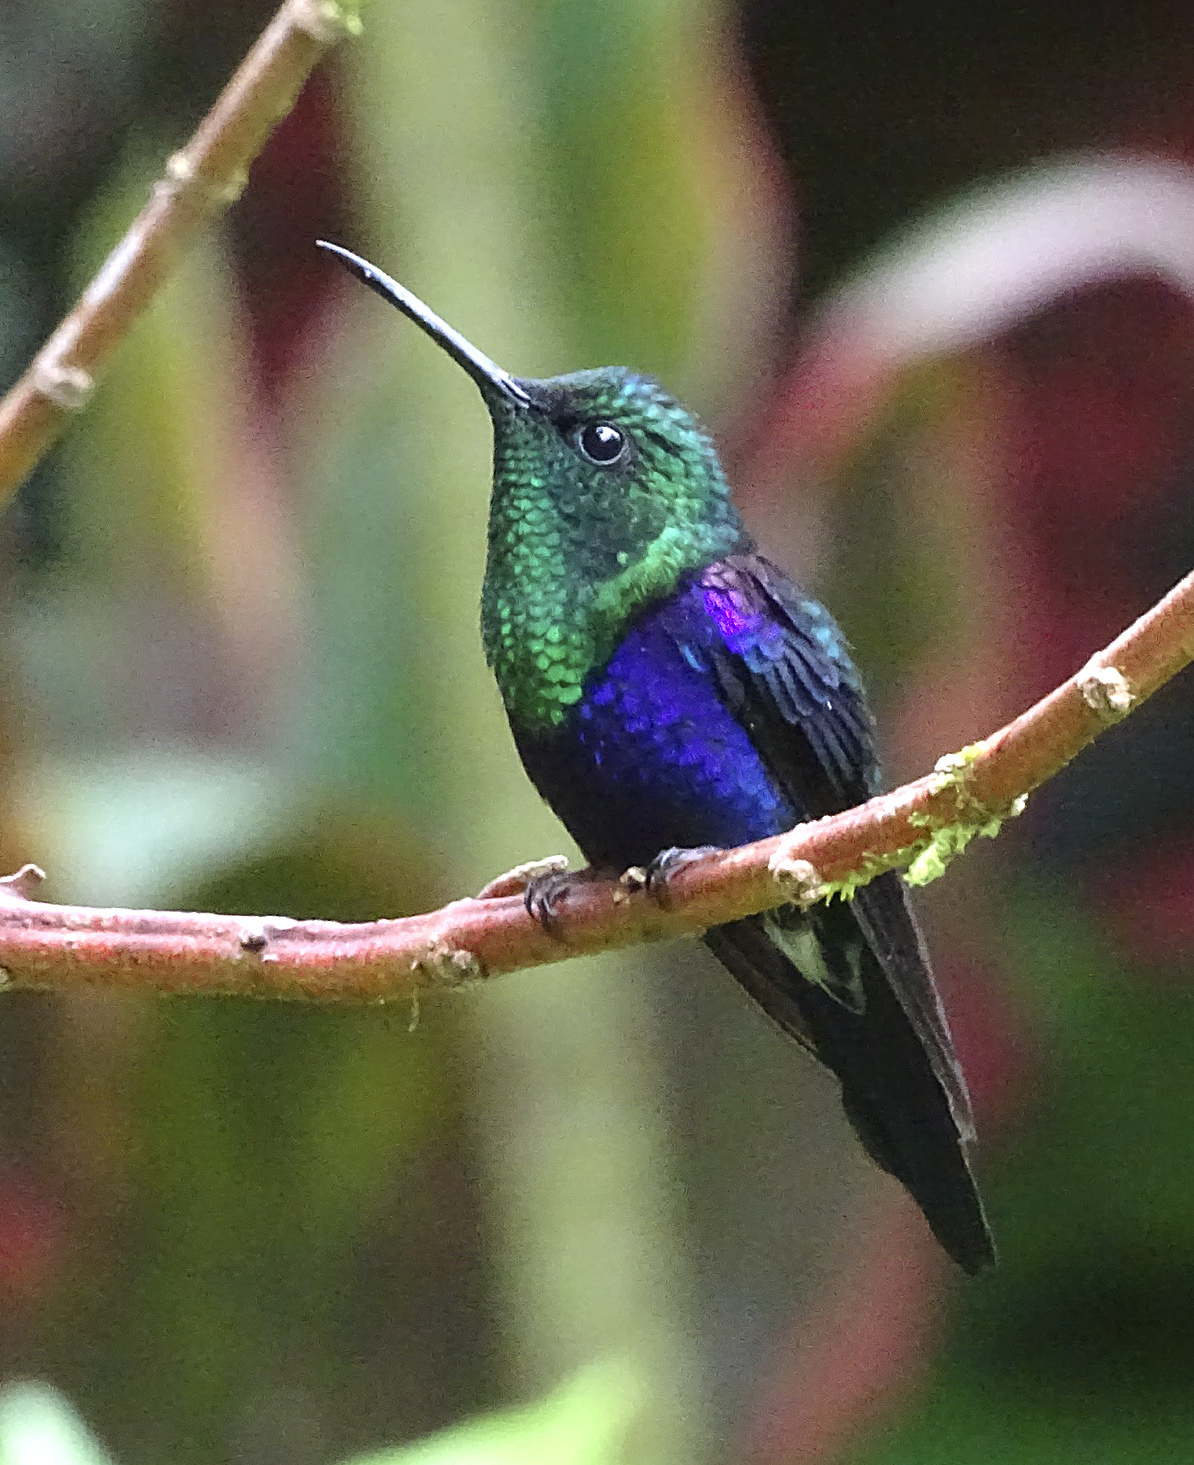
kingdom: Animalia
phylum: Chordata
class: Aves
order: Apodiformes
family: Trochilidae
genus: Thalurania
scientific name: Thalurania colombica
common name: Crowned woodnymph
